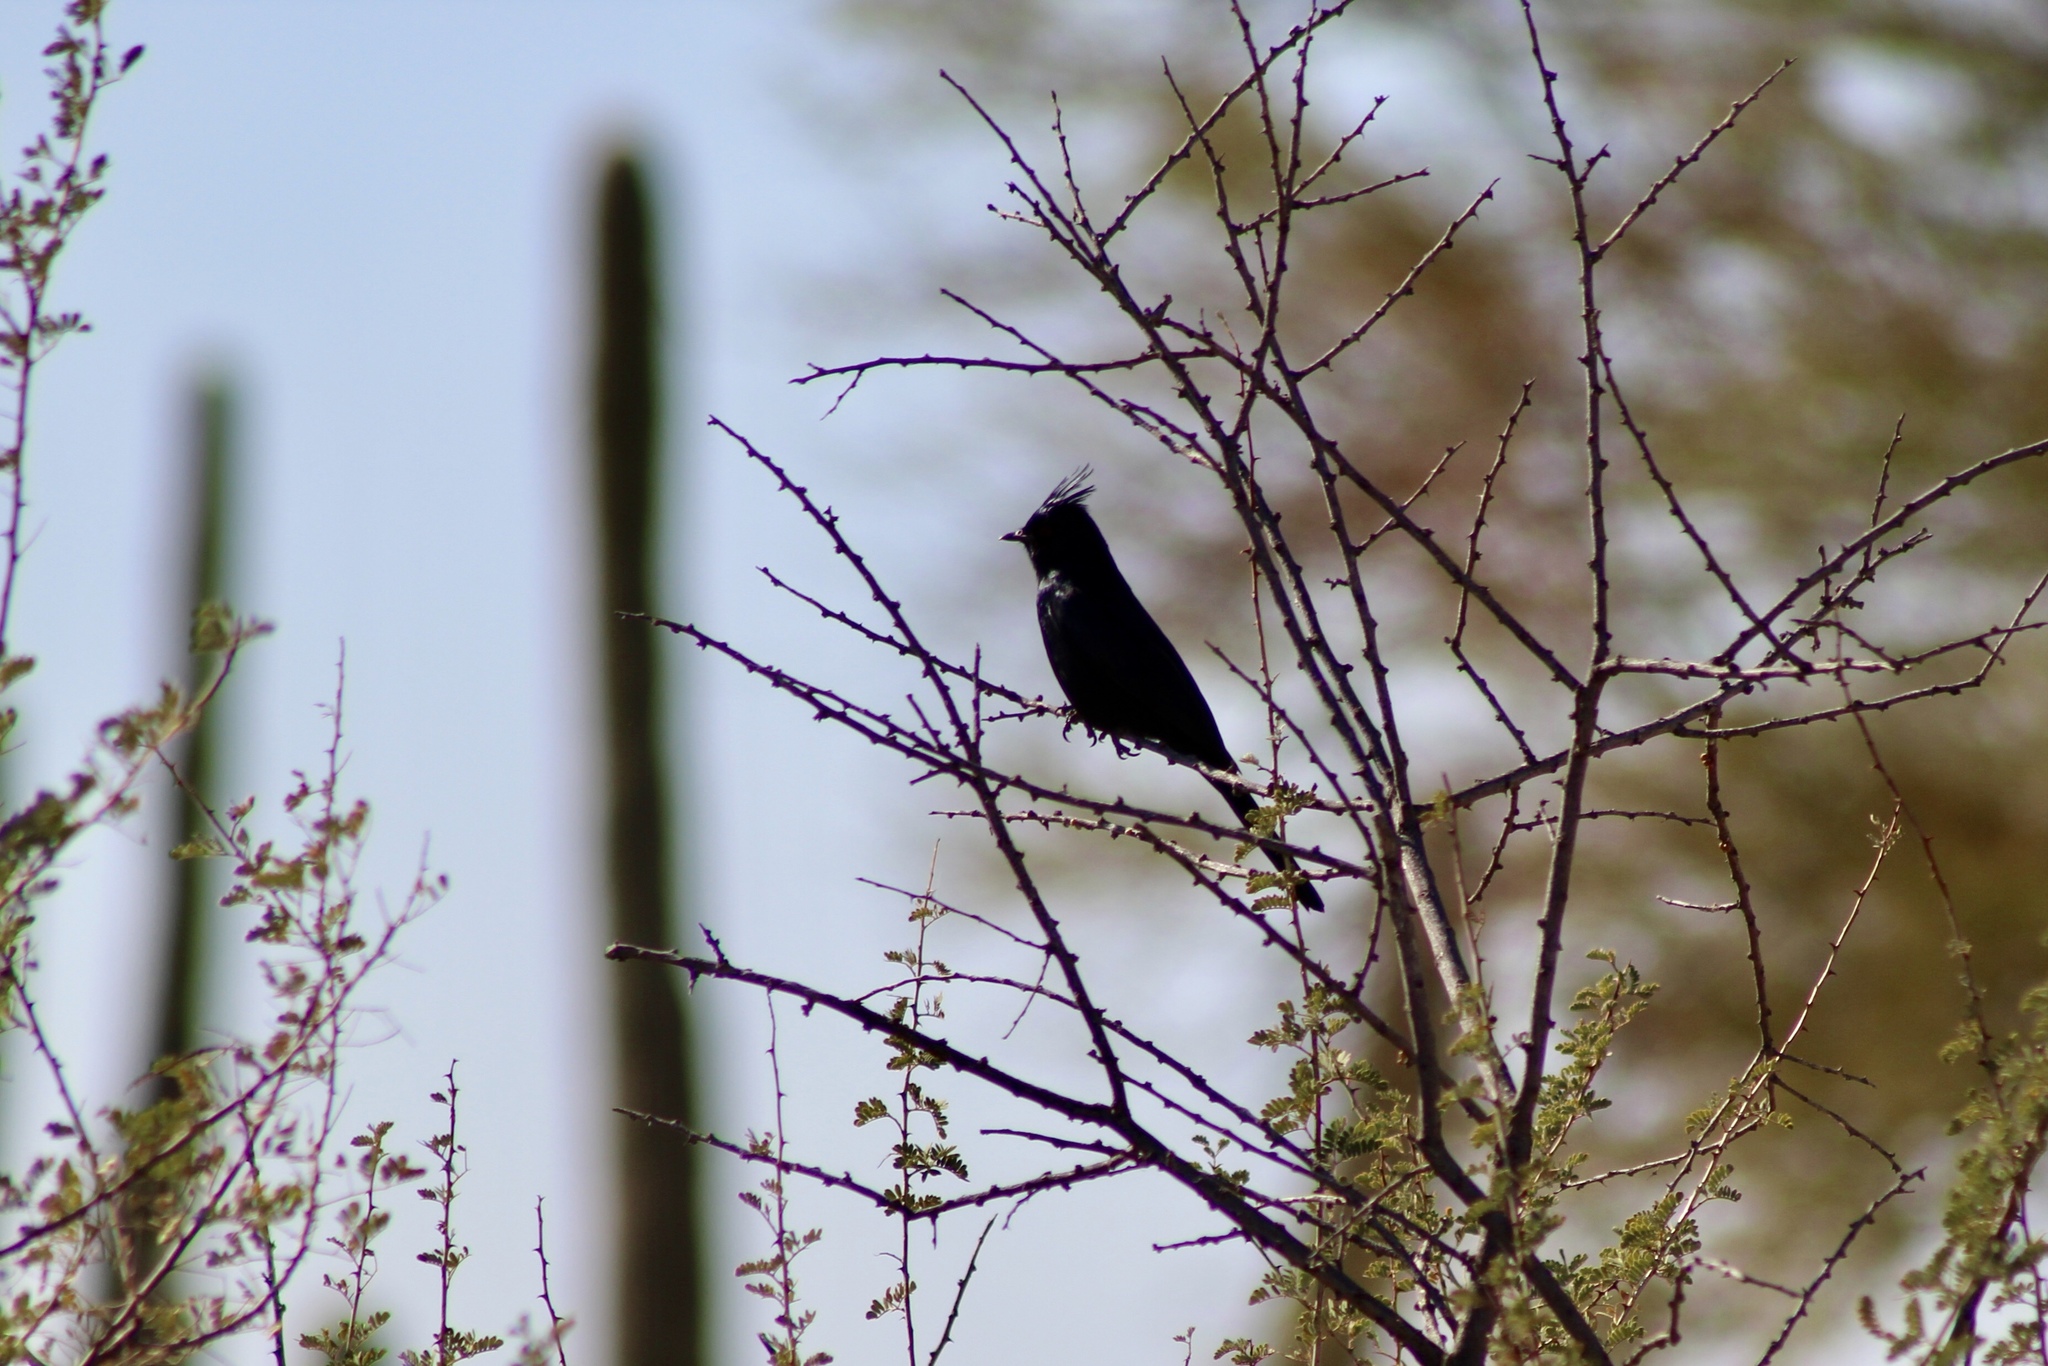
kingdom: Animalia
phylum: Chordata
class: Aves
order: Passeriformes
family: Ptilogonatidae
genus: Phainopepla
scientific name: Phainopepla nitens
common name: Phainopepla
